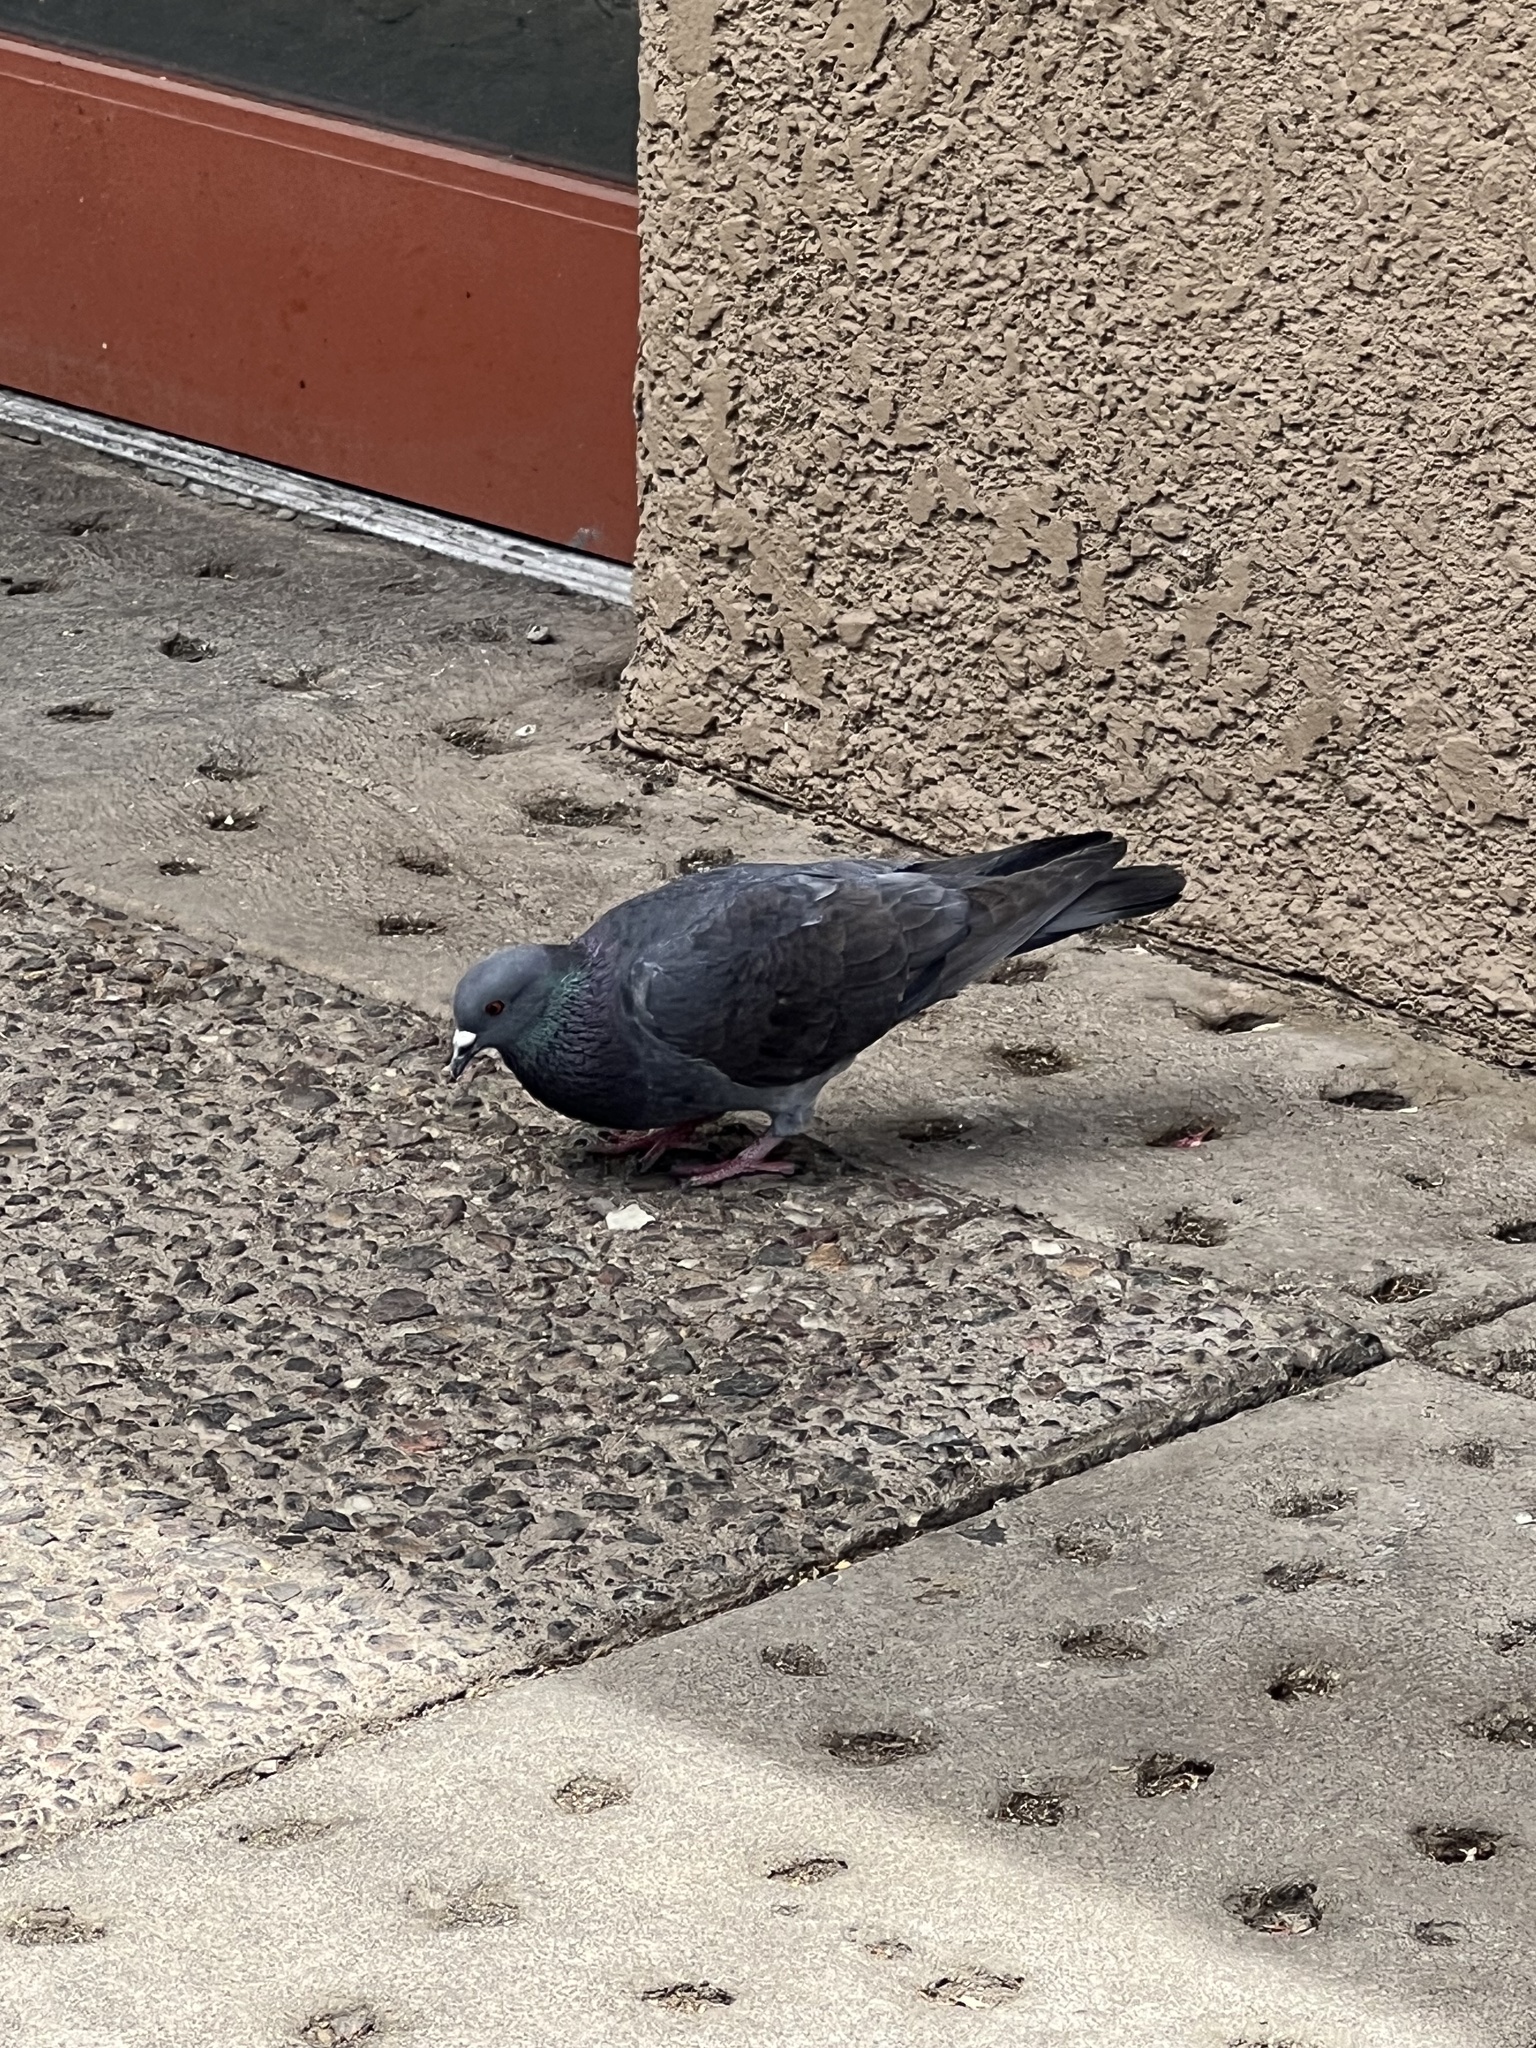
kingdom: Animalia
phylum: Chordata
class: Aves
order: Columbiformes
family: Columbidae
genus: Columba
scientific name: Columba livia
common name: Rock pigeon
